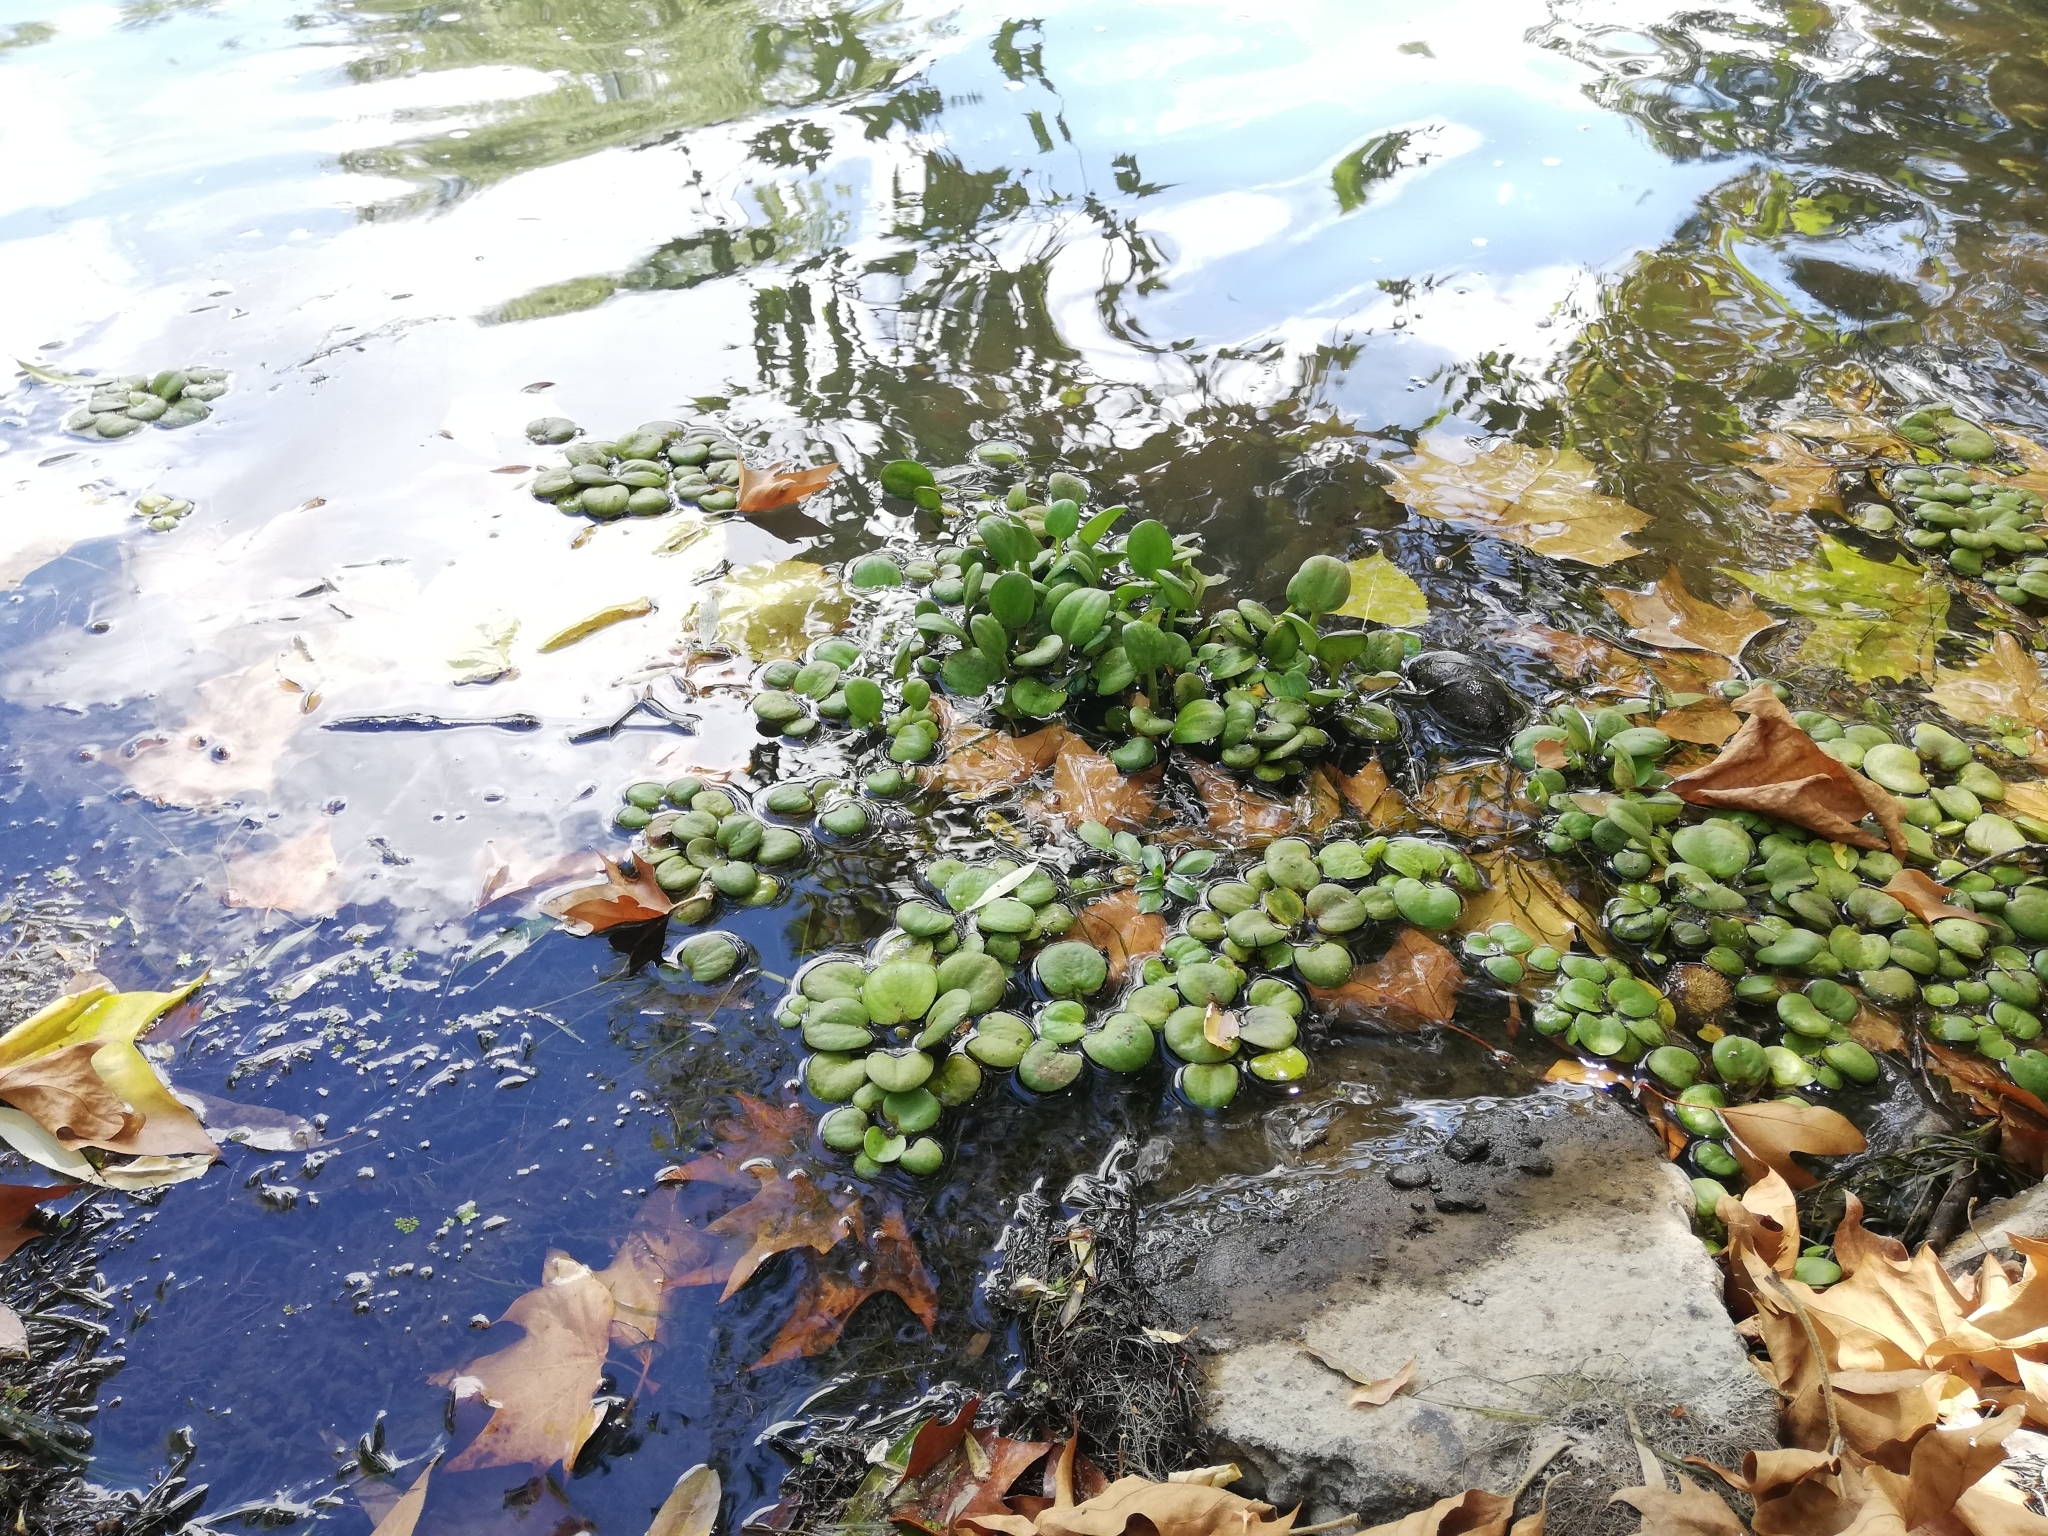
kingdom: Plantae
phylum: Tracheophyta
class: Liliopsida
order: Alismatales
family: Hydrocharitaceae
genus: Hydrocharis
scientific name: Hydrocharis laevigata
